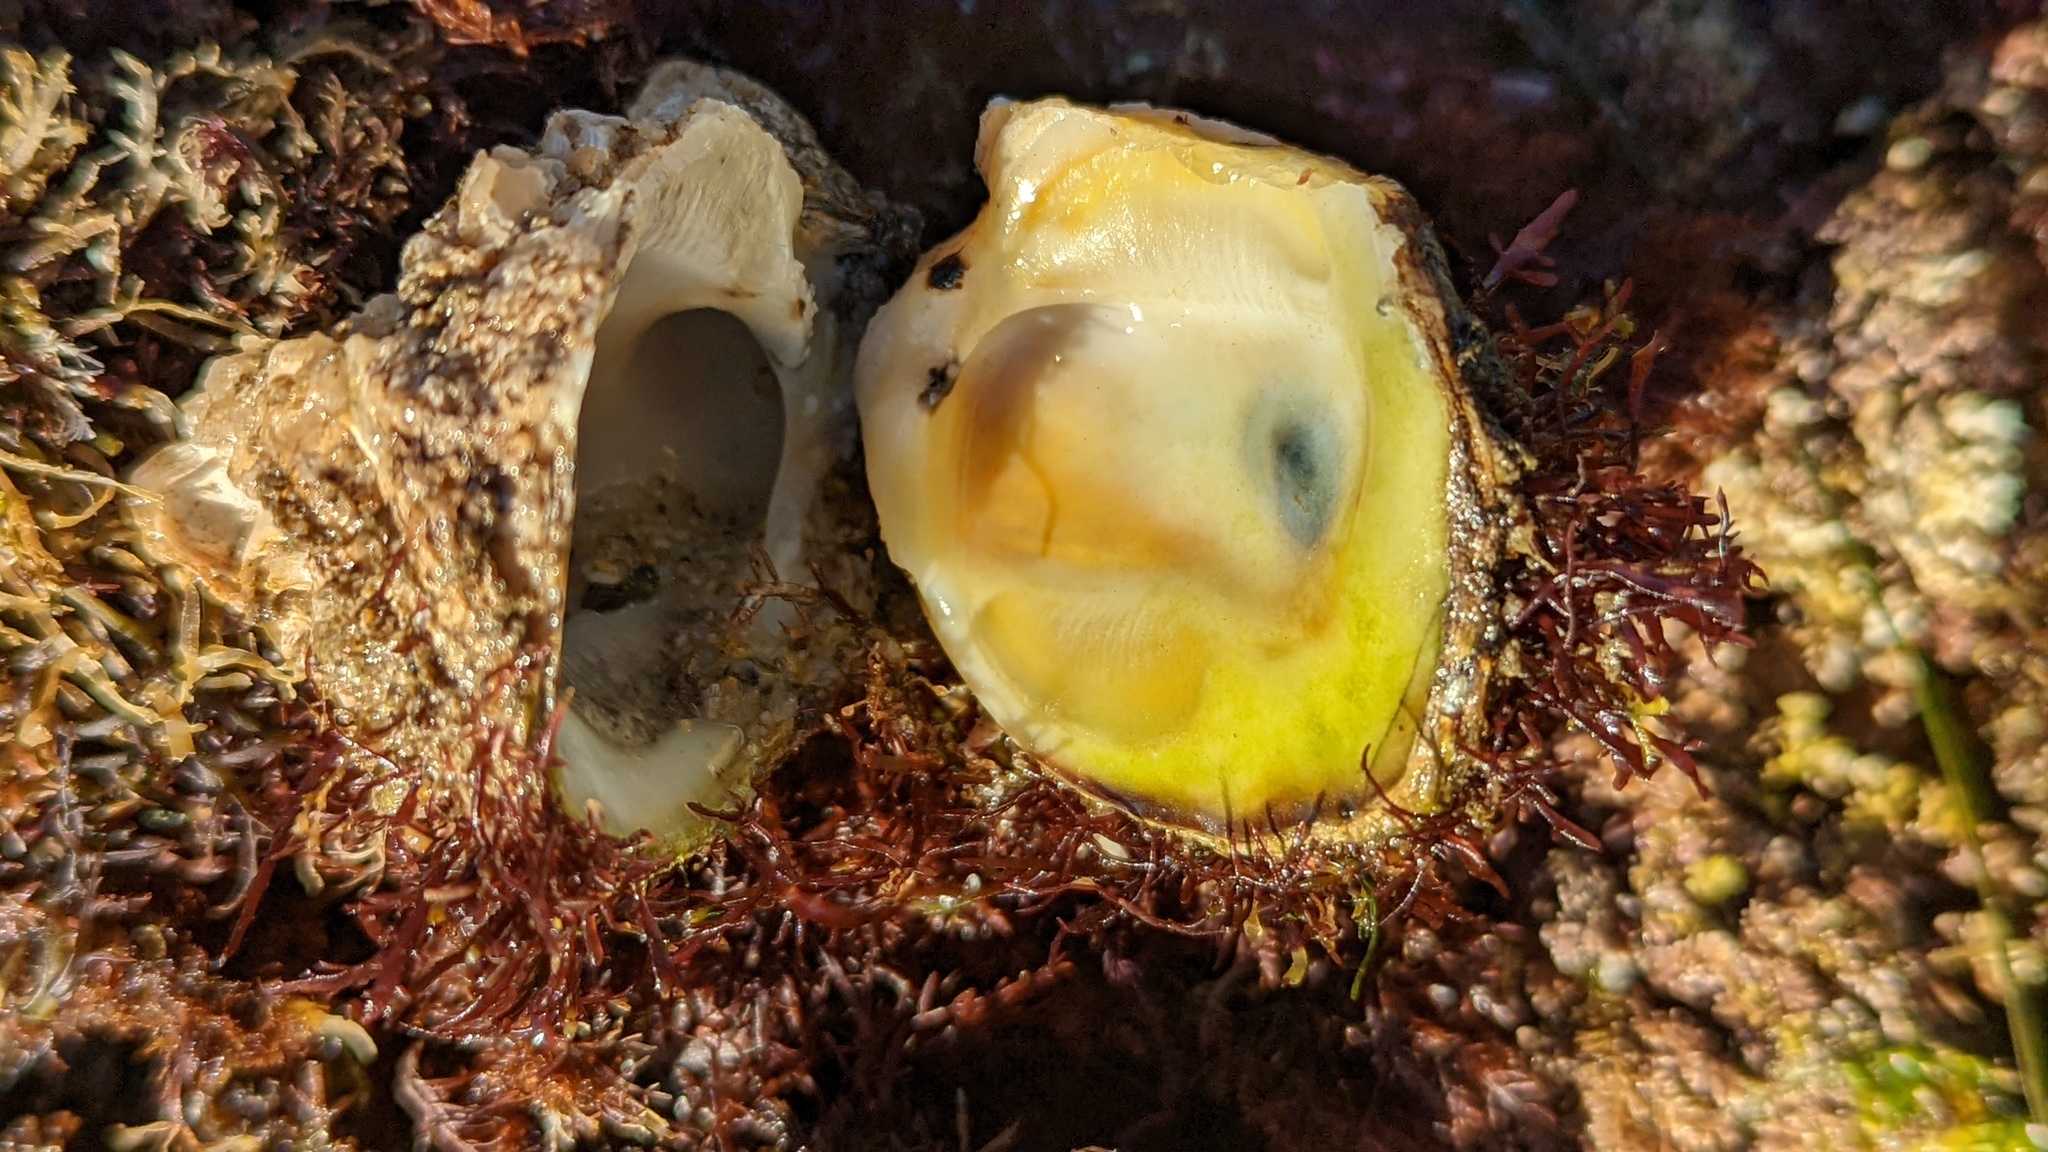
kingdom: Animalia
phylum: Mollusca
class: Bivalvia
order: Venerida
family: Chamidae
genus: Pseudochama
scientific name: Pseudochama exogyra
